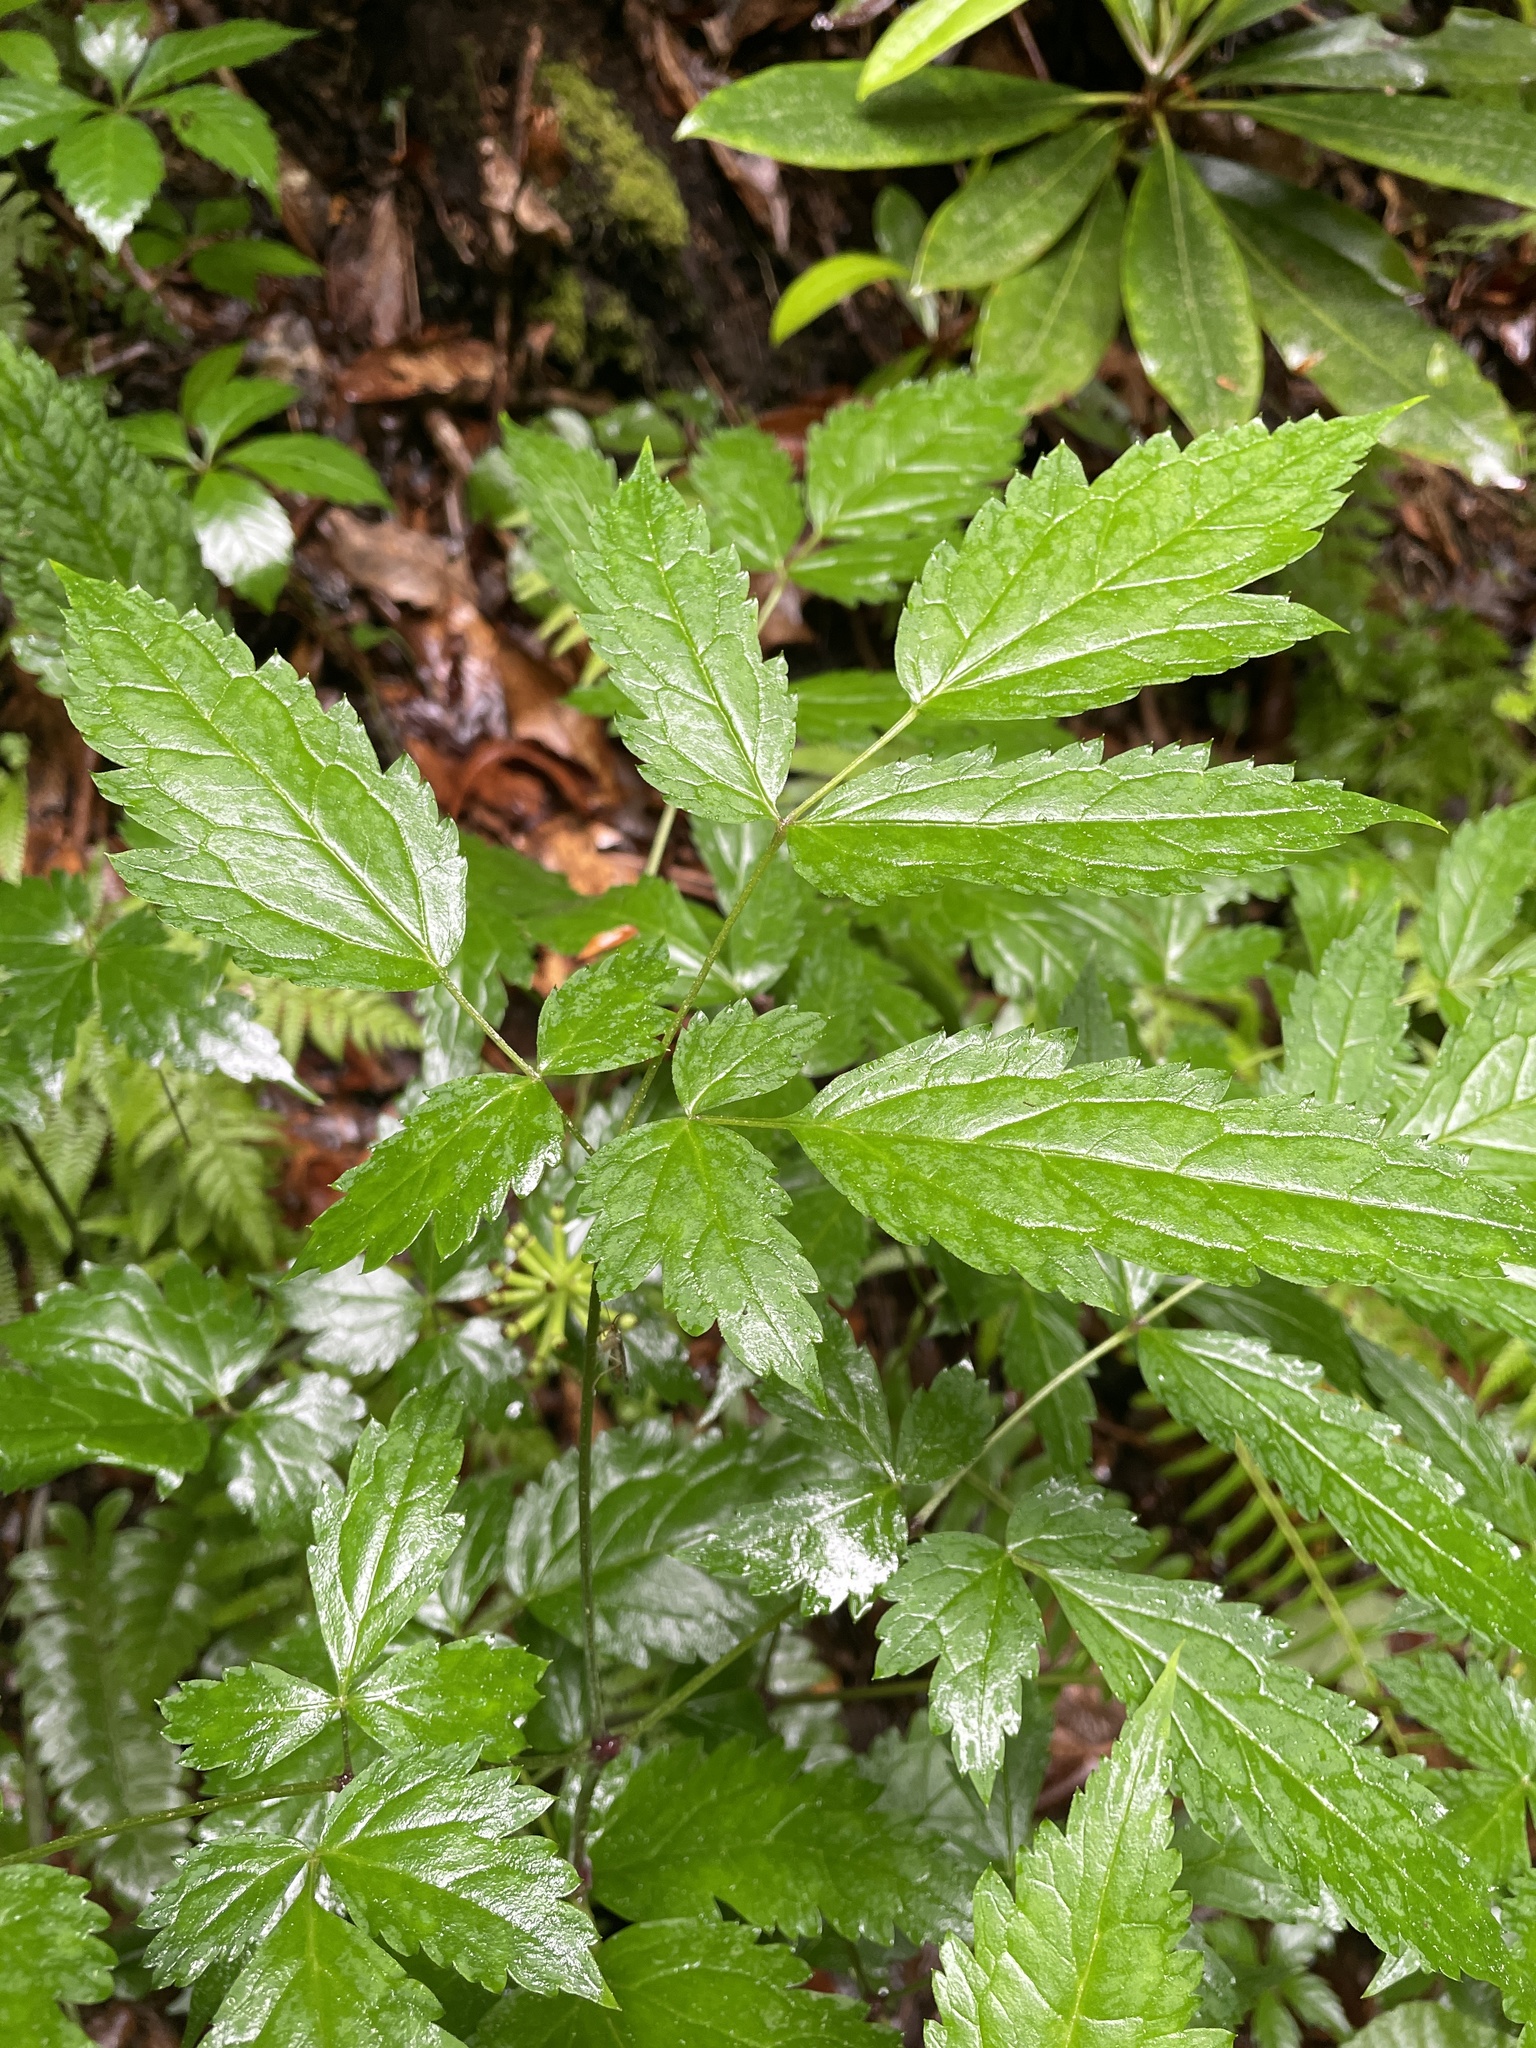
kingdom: Plantae
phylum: Tracheophyta
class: Magnoliopsida
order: Ranunculales
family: Ranunculaceae
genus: Actaea
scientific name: Actaea pachypoda
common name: Doll's-eyes
